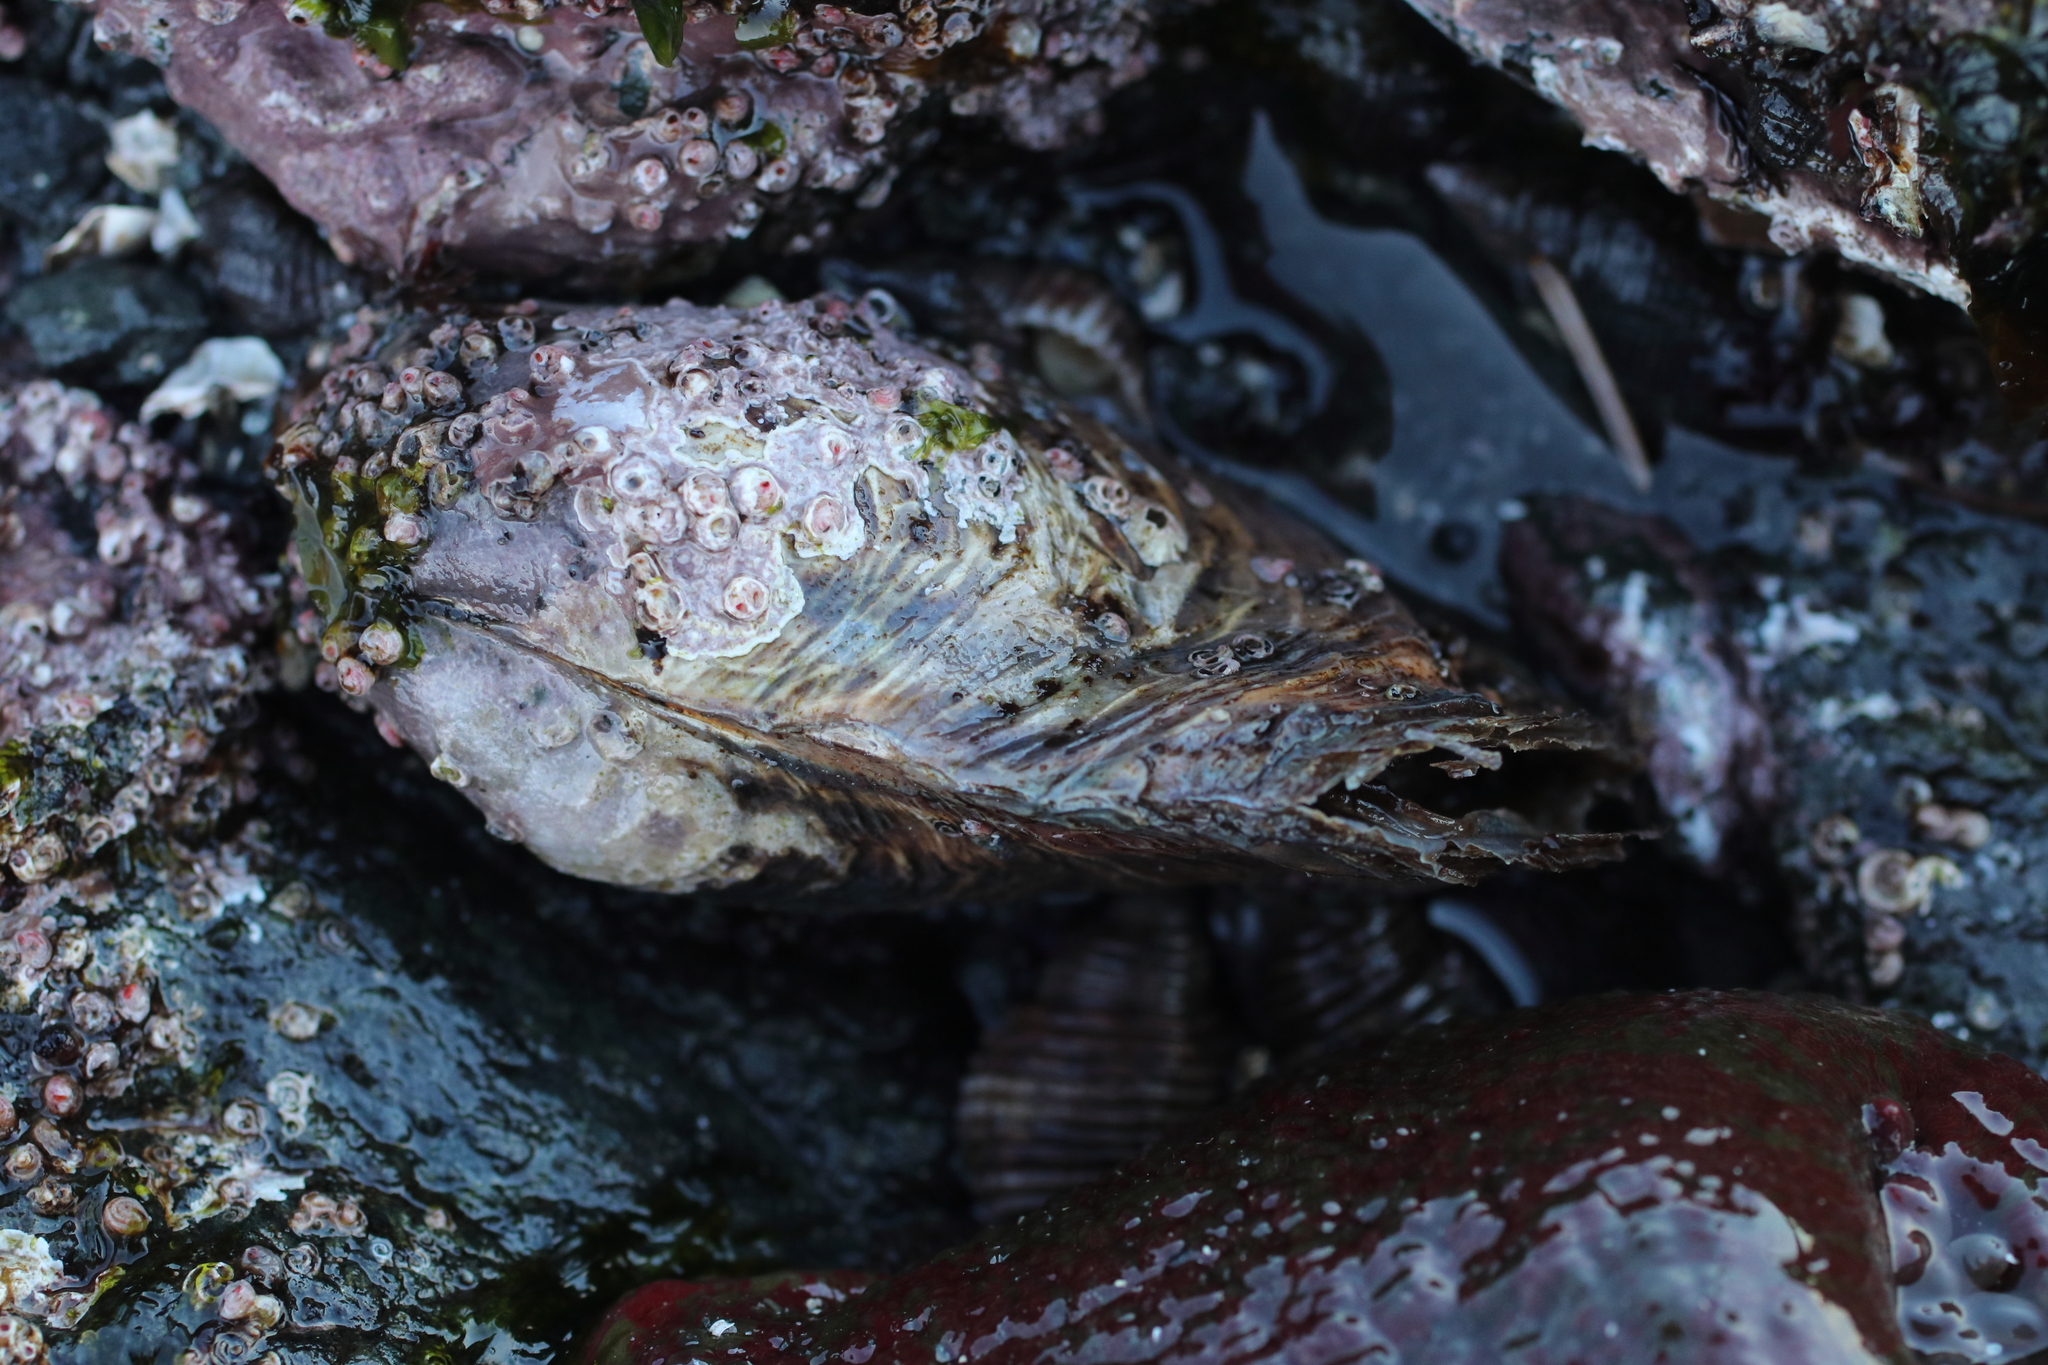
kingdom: Animalia
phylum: Mollusca
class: Bivalvia
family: Lyonsiidae
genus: Entodesma
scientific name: Entodesma navicula
